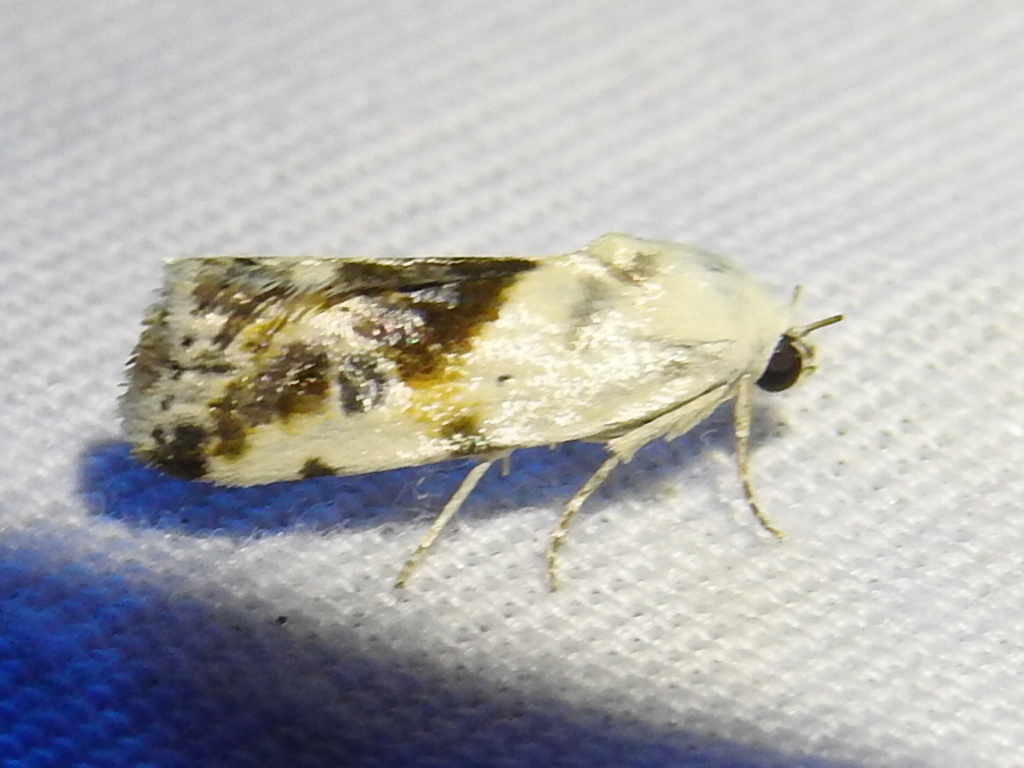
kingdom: Animalia
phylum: Arthropoda
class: Insecta
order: Lepidoptera
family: Noctuidae
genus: Acontia
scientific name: Acontia candefacta
